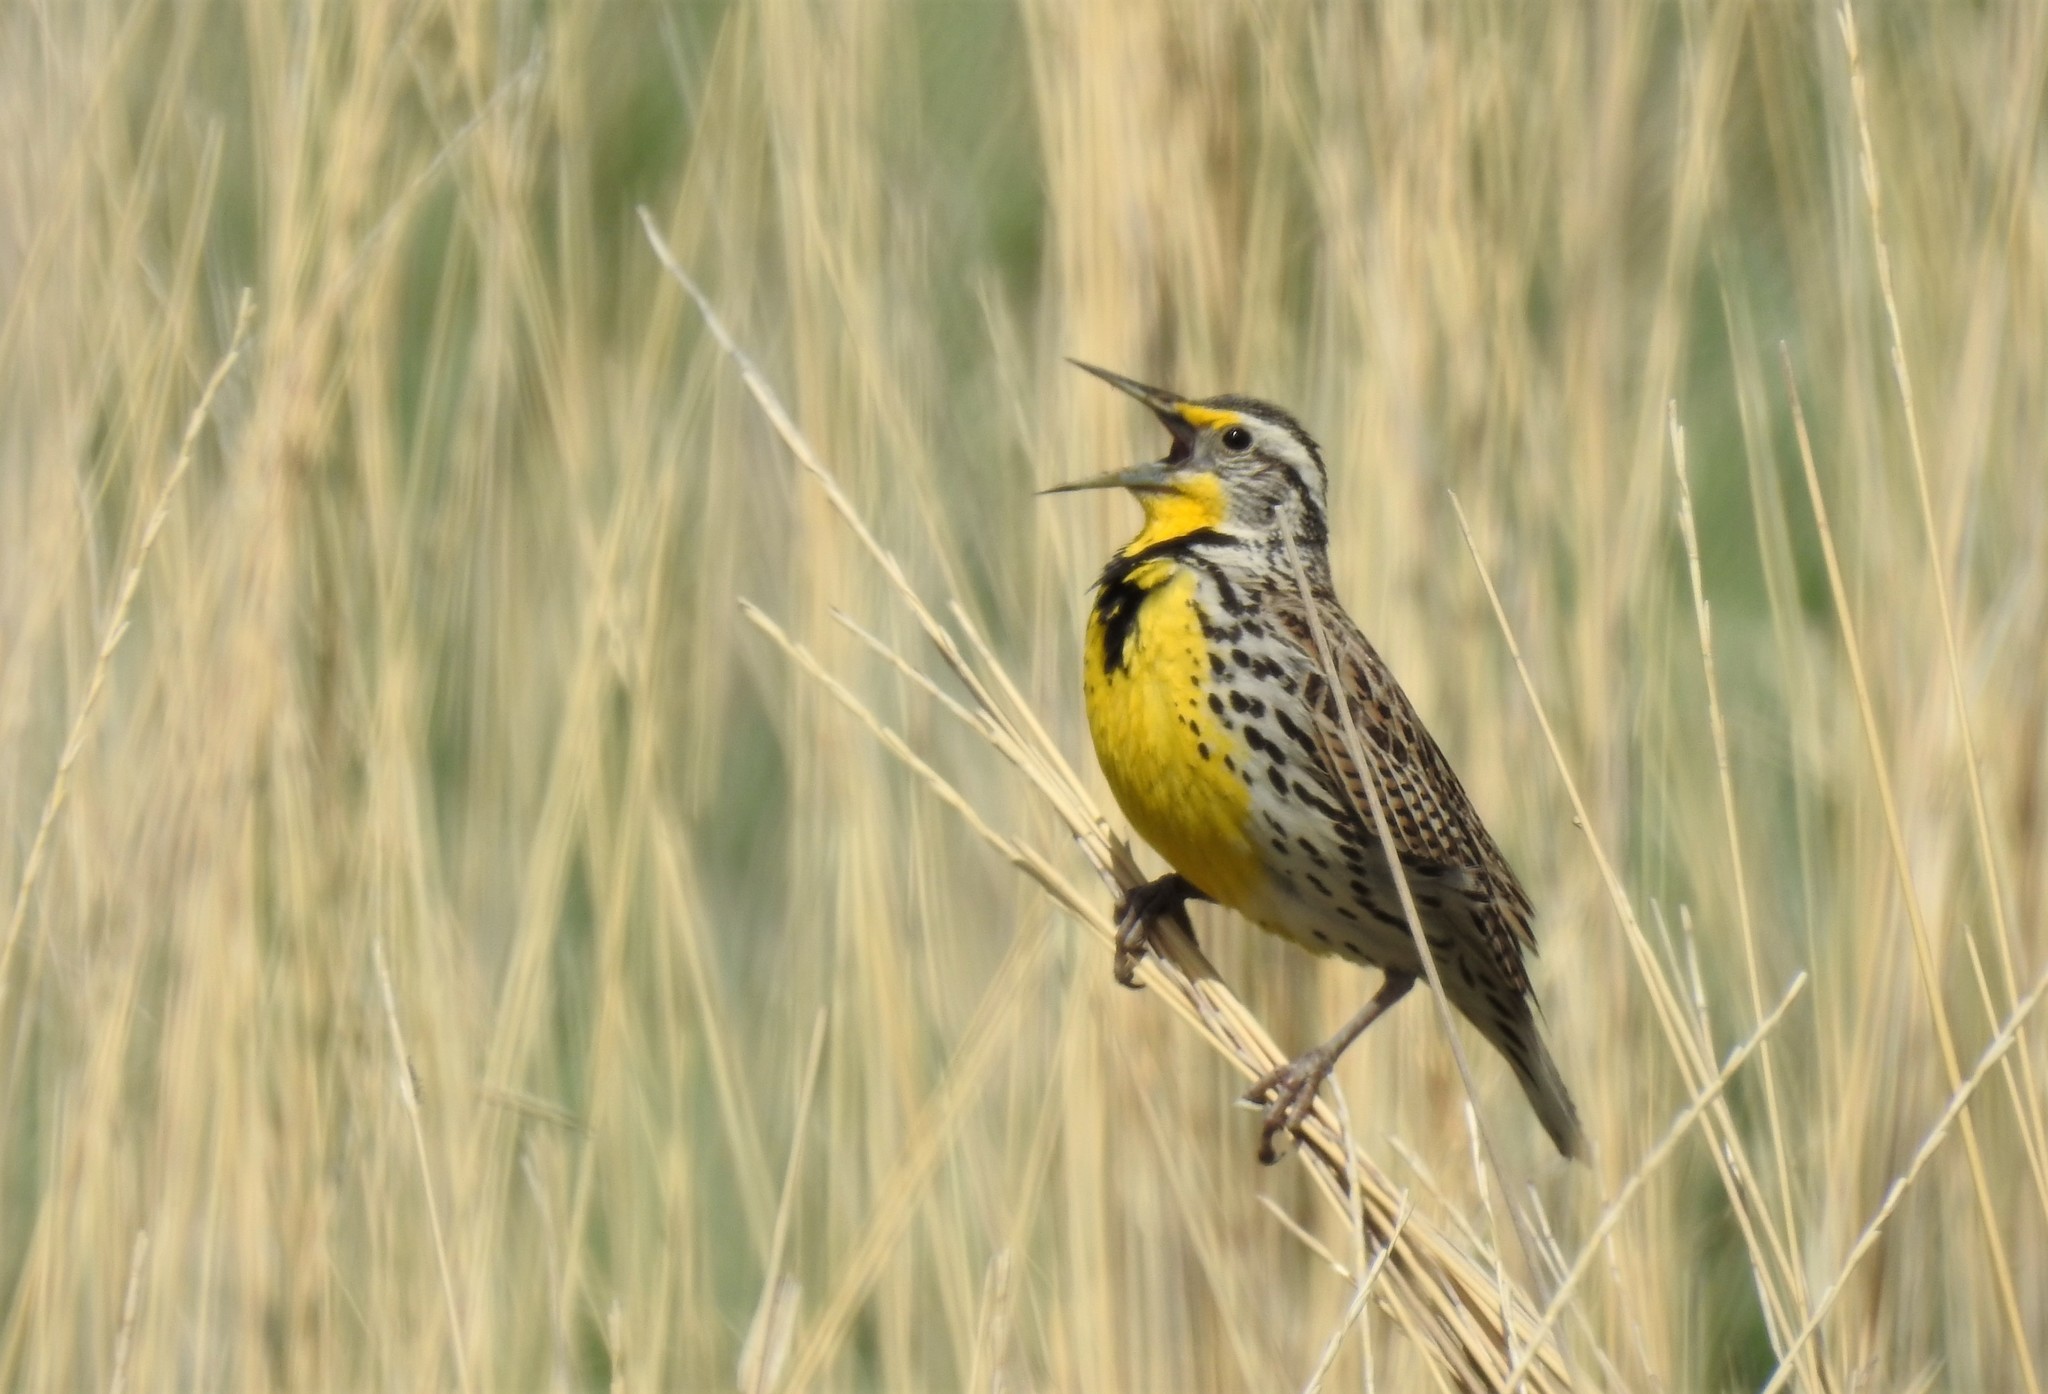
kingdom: Animalia
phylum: Chordata
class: Aves
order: Passeriformes
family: Icteridae
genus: Sturnella
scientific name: Sturnella neglecta
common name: Western meadowlark
